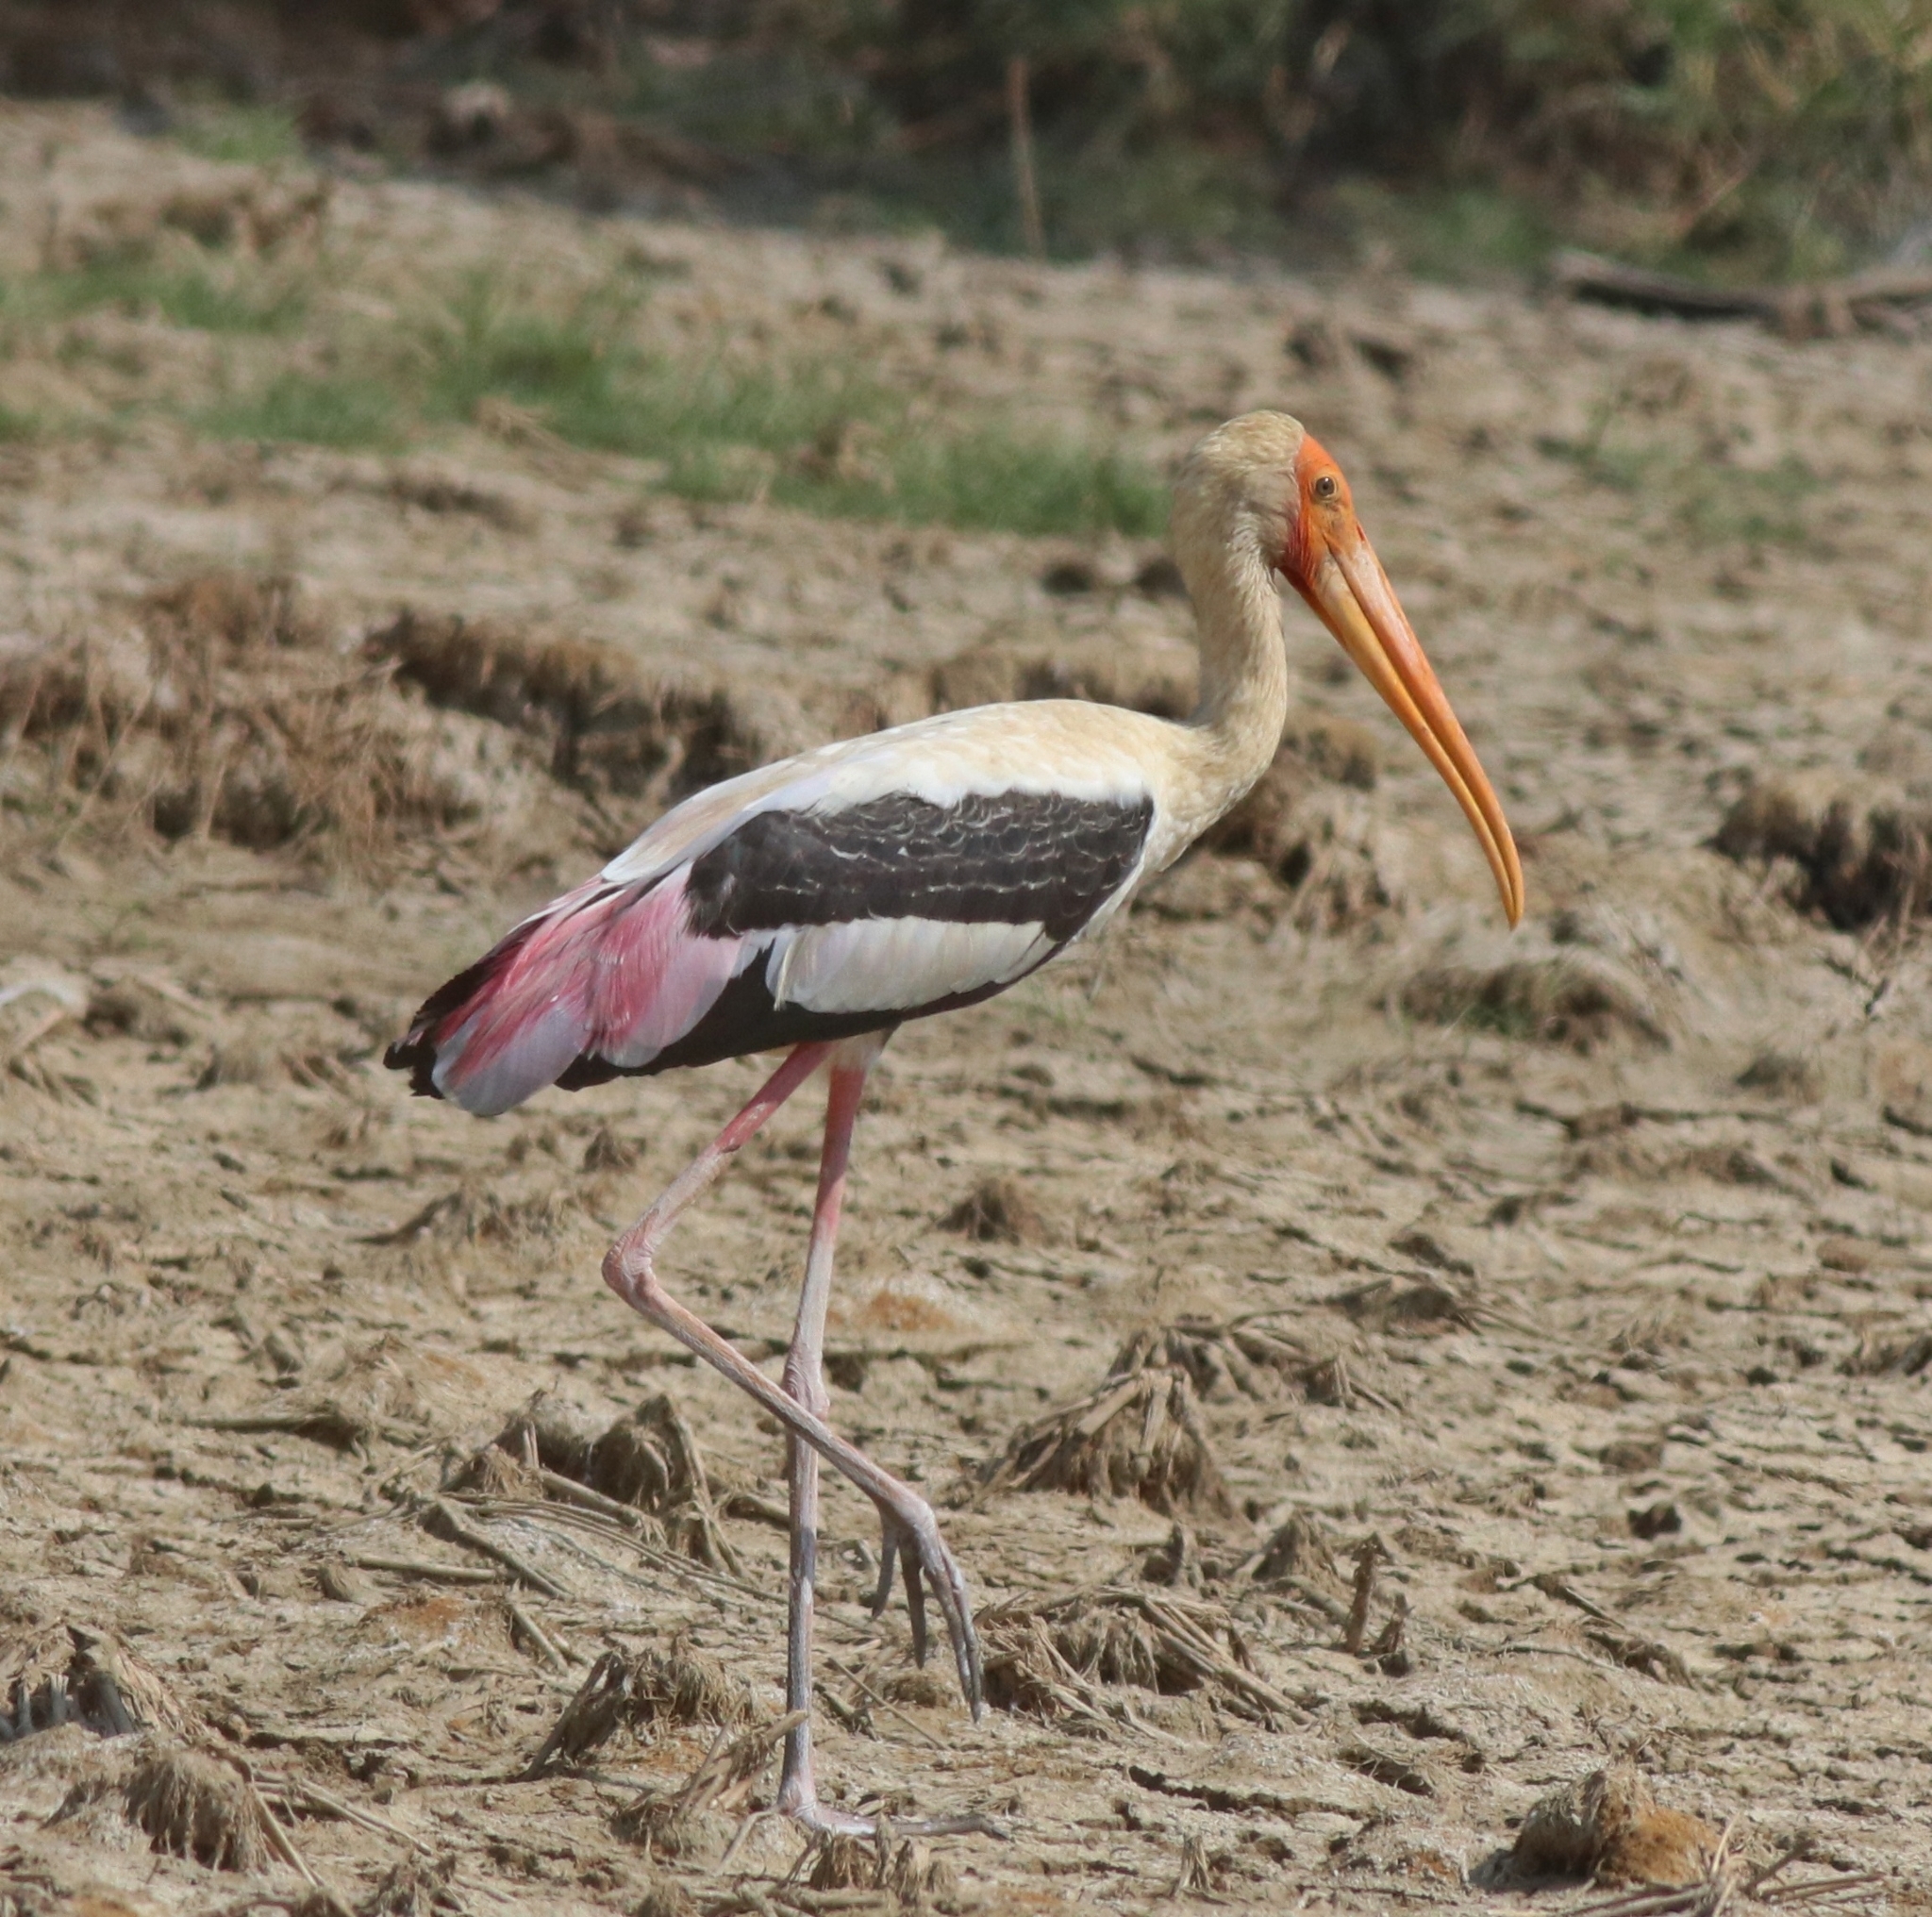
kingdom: Animalia
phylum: Chordata
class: Aves
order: Ciconiiformes
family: Ciconiidae
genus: Mycteria
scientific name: Mycteria leucocephala
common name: Painted stork
